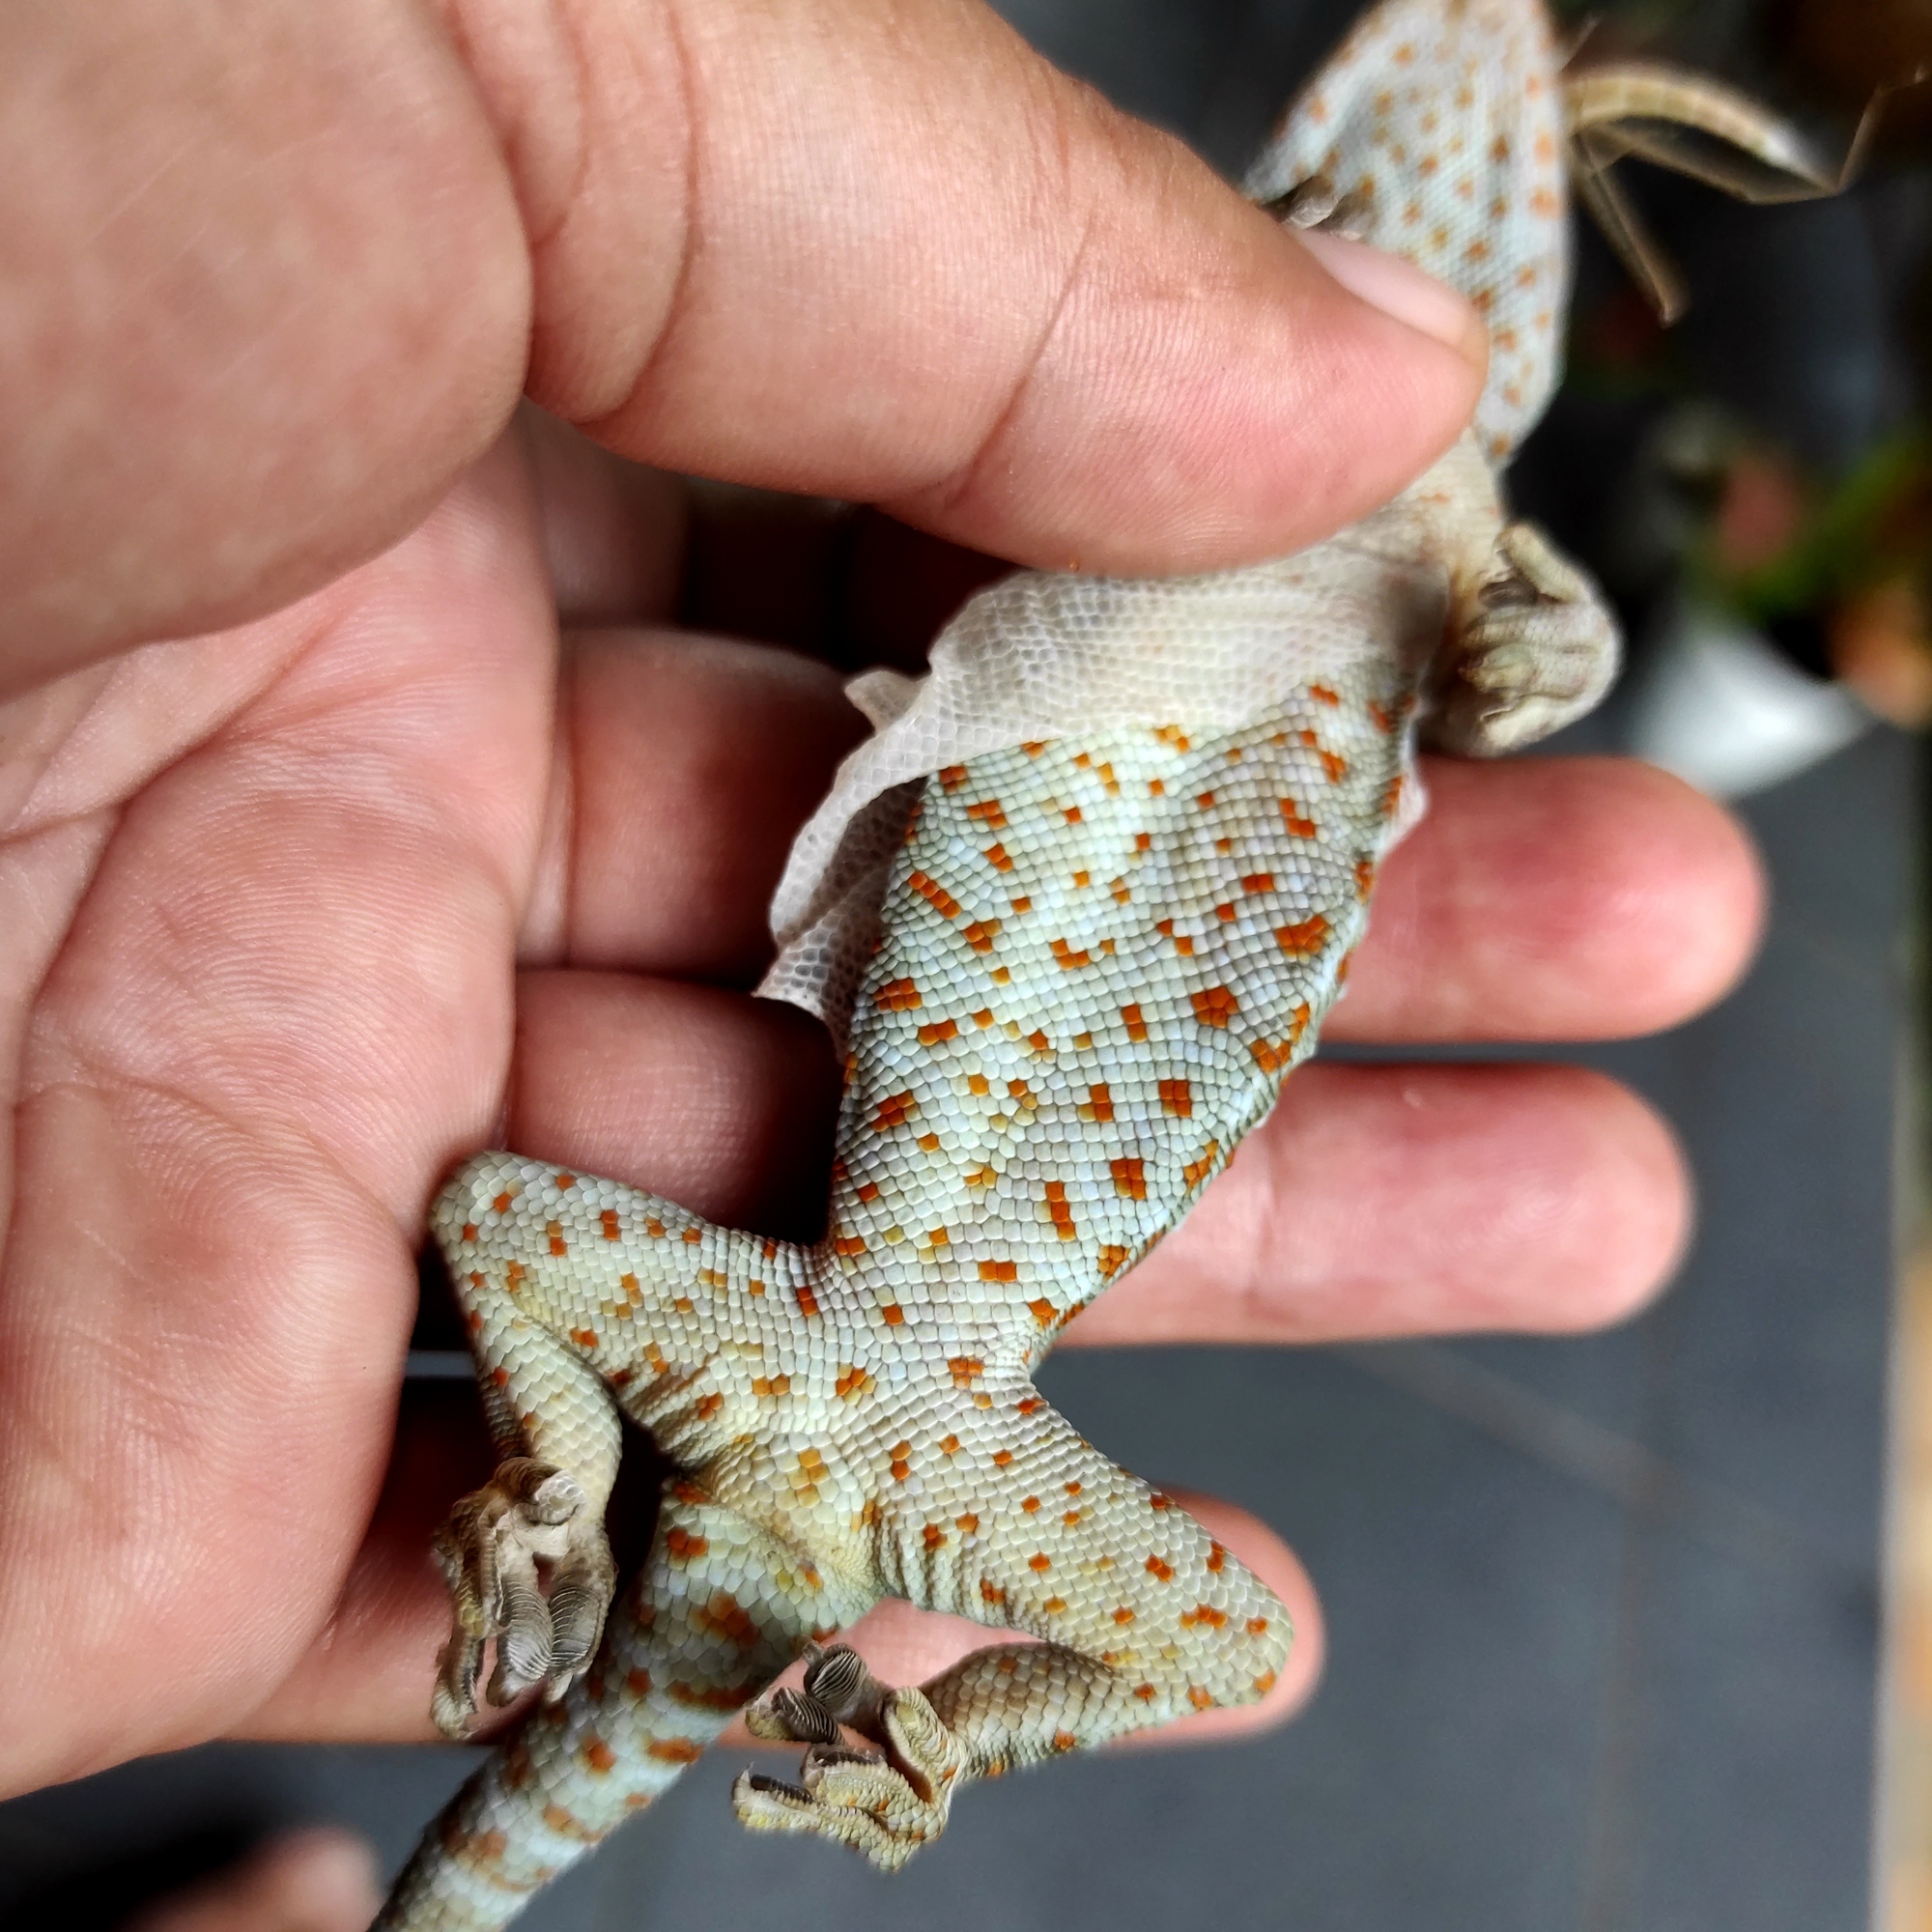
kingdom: Animalia
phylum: Chordata
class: Squamata
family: Gekkonidae
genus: Gekko
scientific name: Gekko gecko
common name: Tokay gecko
